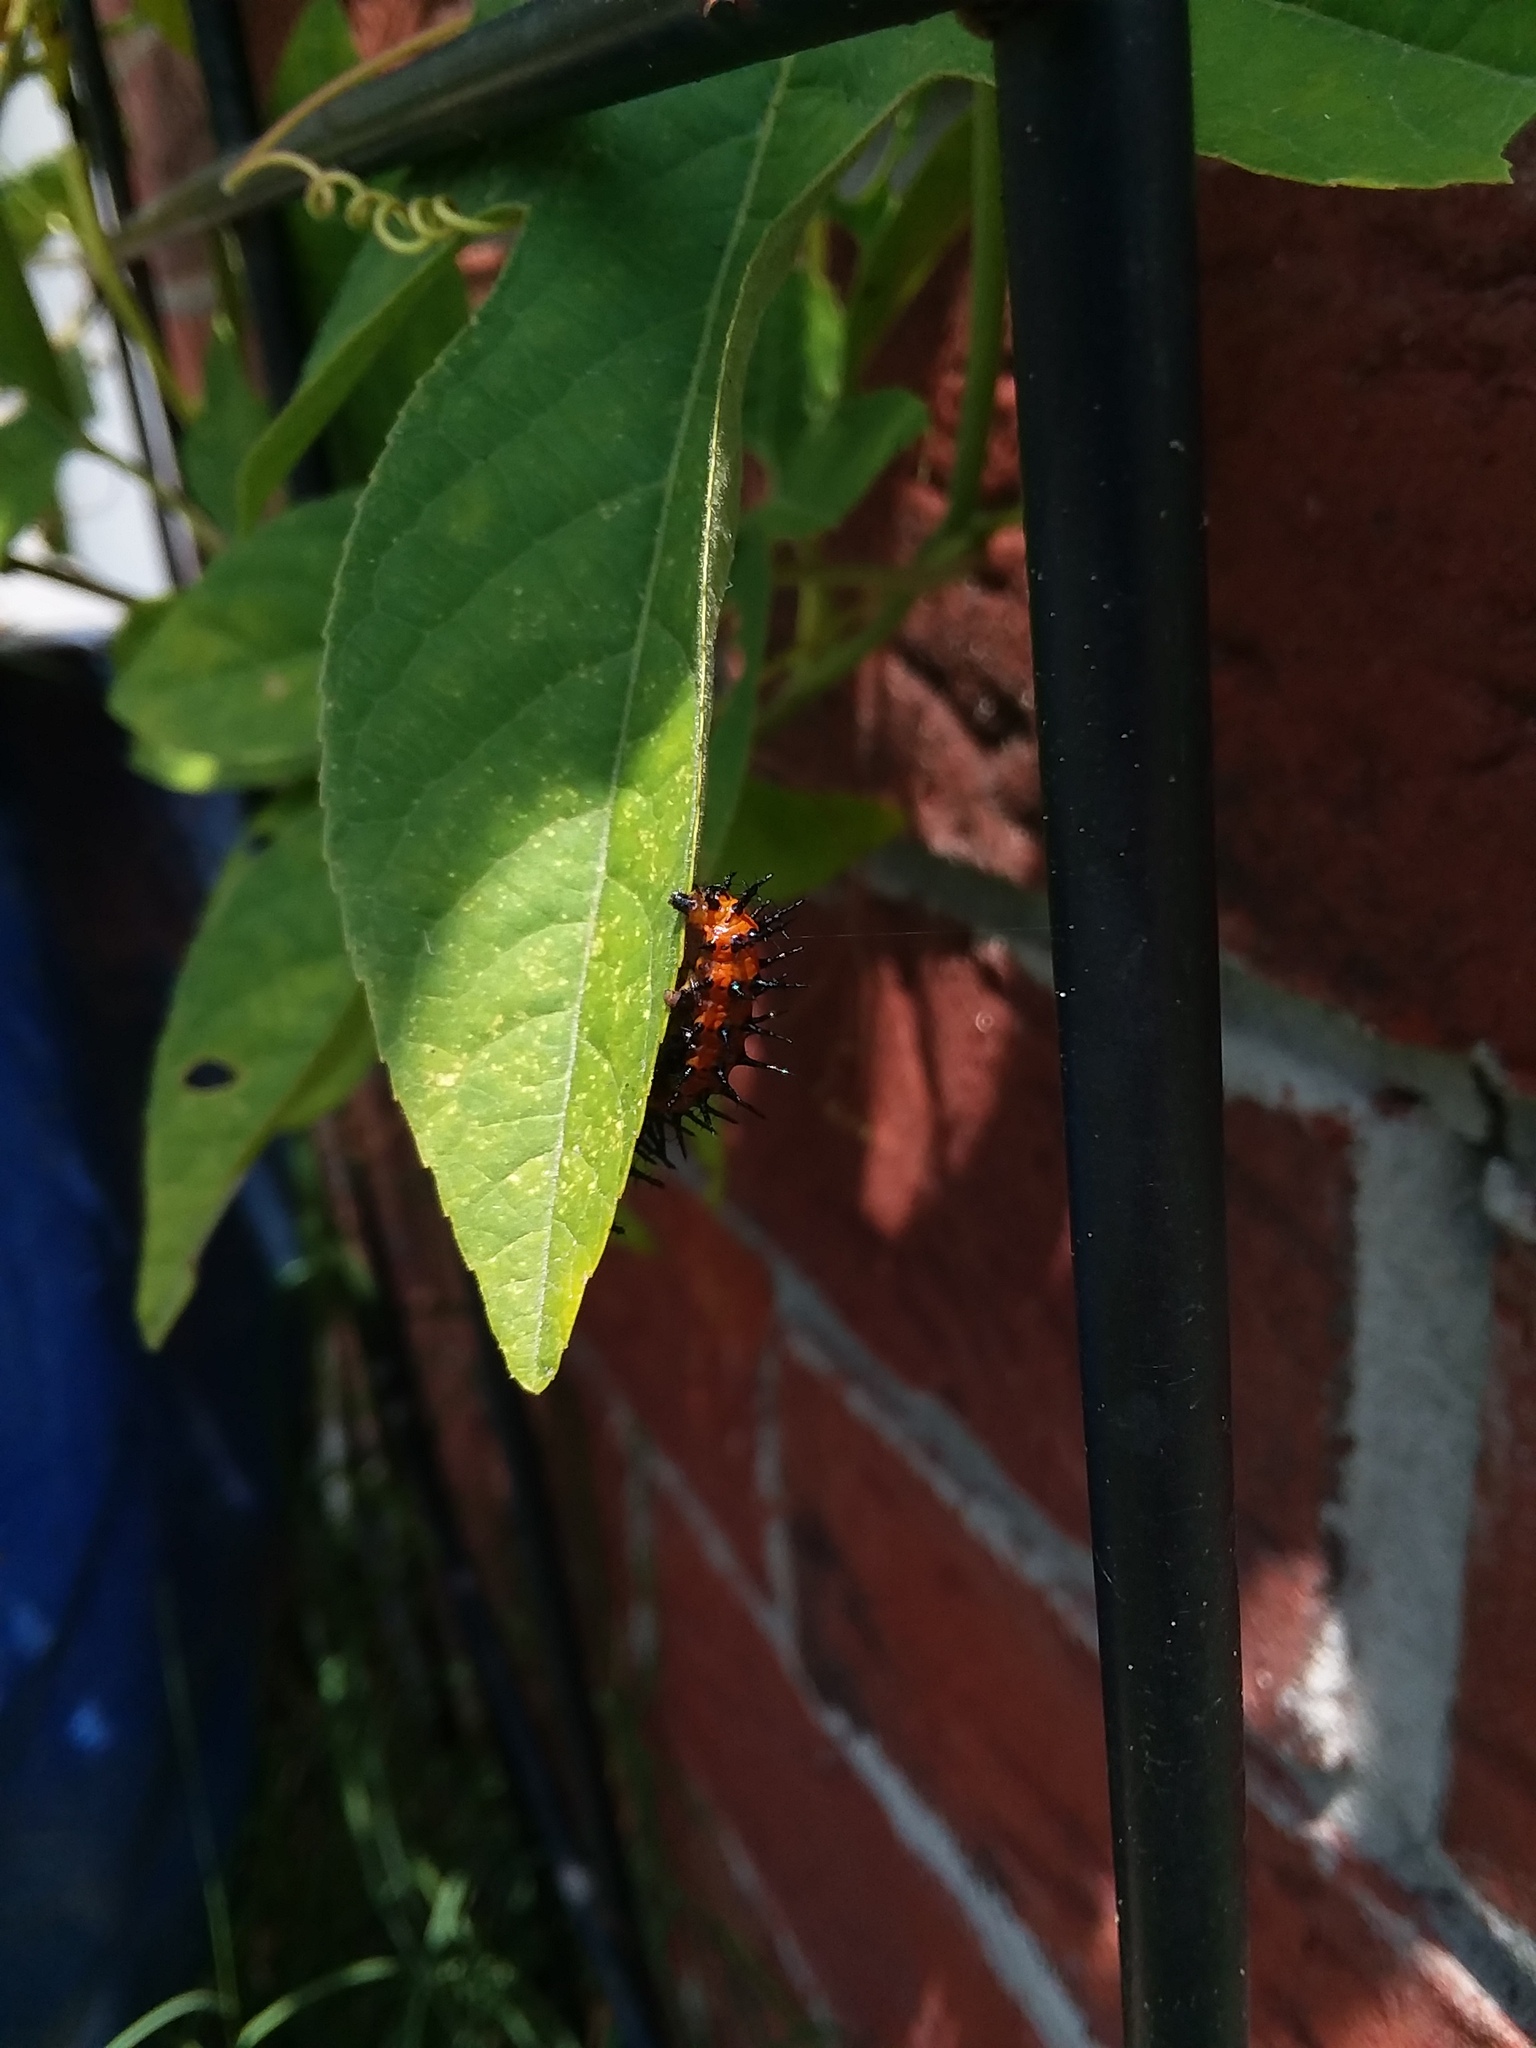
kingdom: Animalia
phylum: Arthropoda
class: Insecta
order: Lepidoptera
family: Nymphalidae
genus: Dione
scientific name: Dione vanillae
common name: Gulf fritillary
